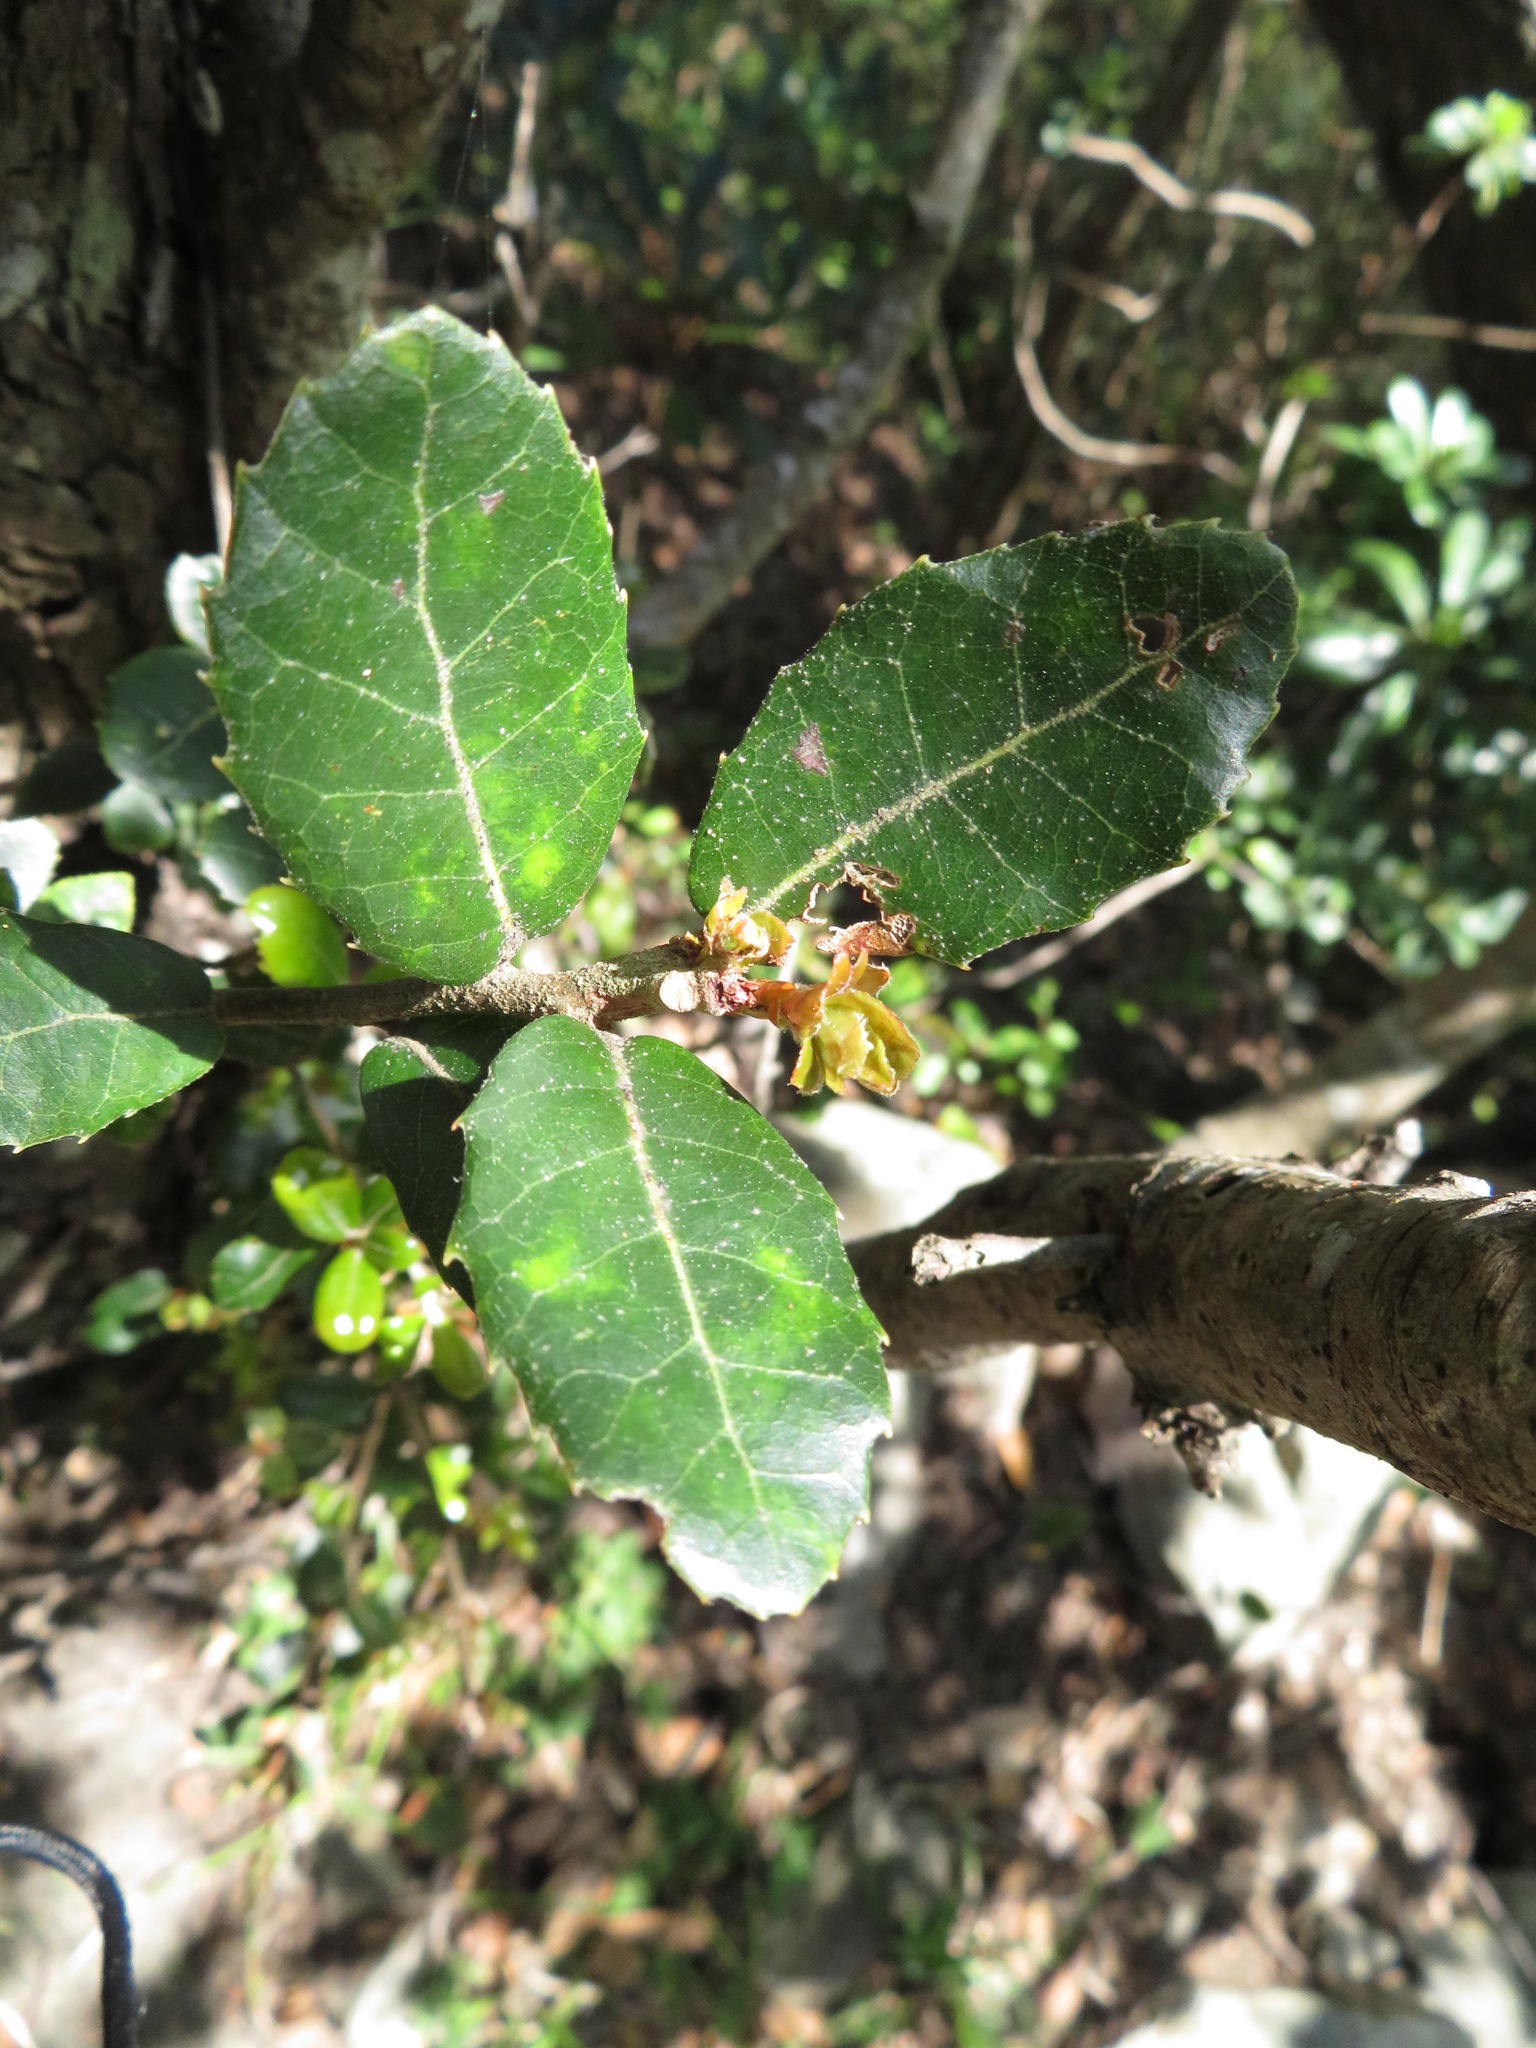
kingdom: Plantae
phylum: Tracheophyta
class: Magnoliopsida
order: Fagales
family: Fagaceae
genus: Quercus
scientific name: Quercus phillyreoides
